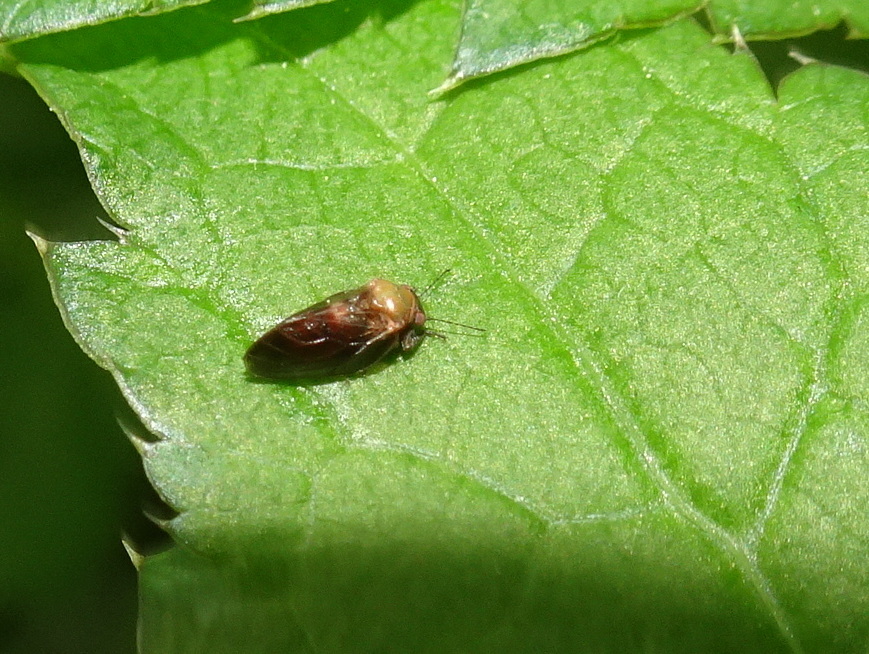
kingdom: Animalia
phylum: Arthropoda
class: Insecta
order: Hemiptera
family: Aphalaridae
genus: Pachypsylla
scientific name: Pachypsylla celtidisgemma
